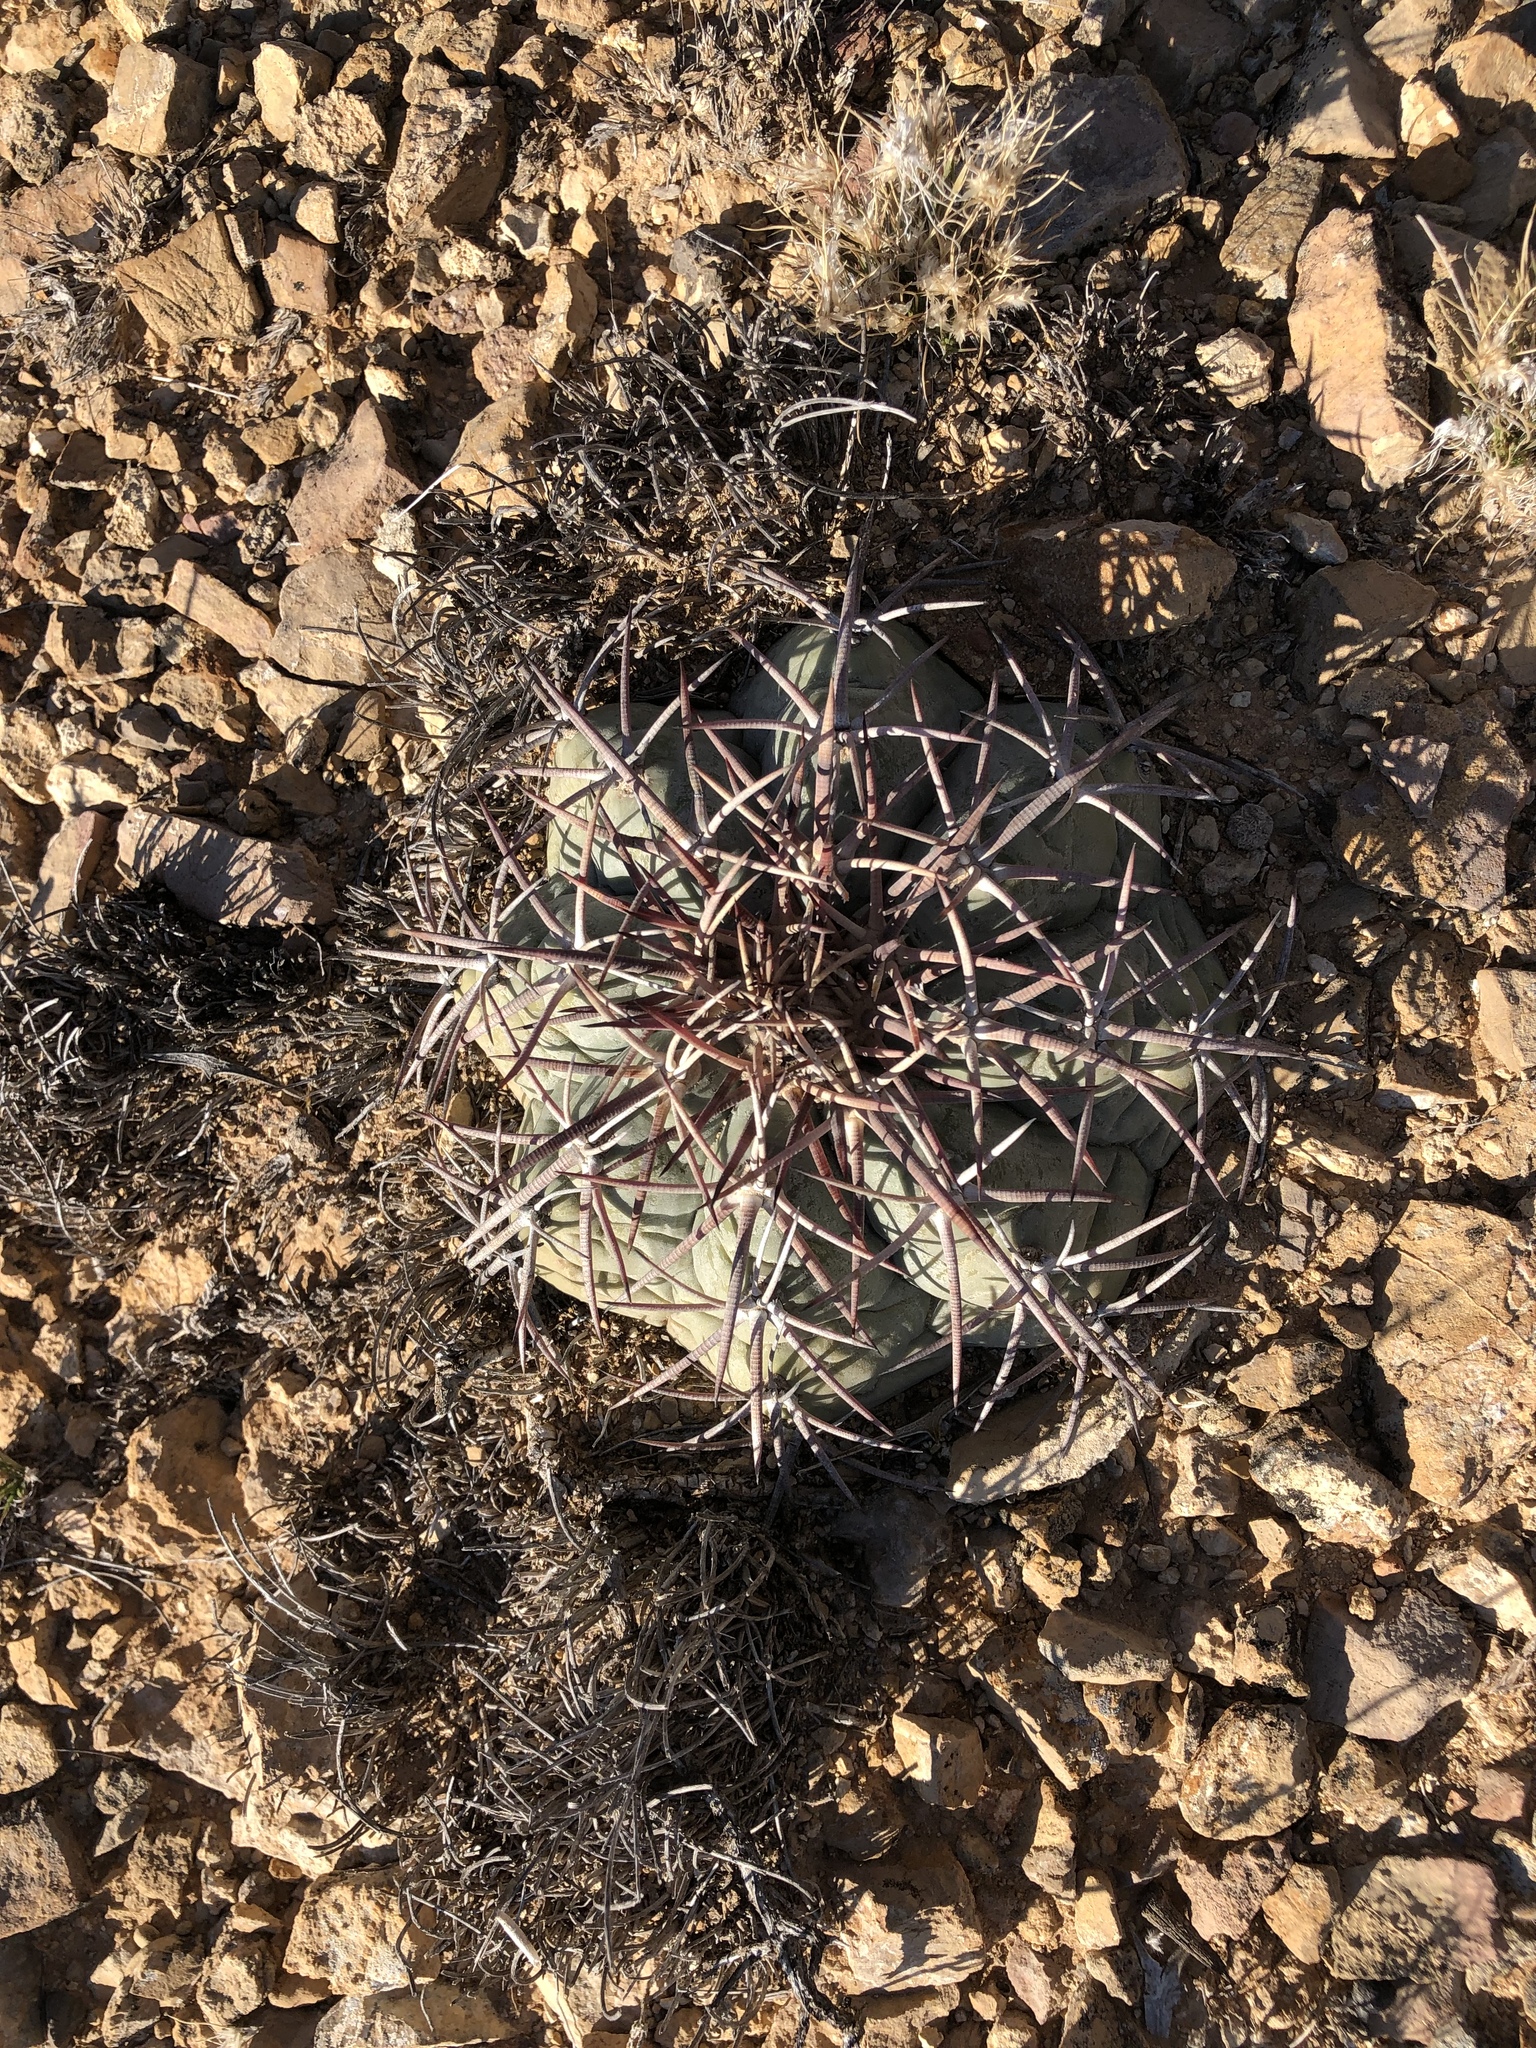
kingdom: Plantae
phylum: Tracheophyta
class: Magnoliopsida
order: Caryophyllales
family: Cactaceae
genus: Echinocactus
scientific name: Echinocactus horizonthalonius
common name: Devilshead
